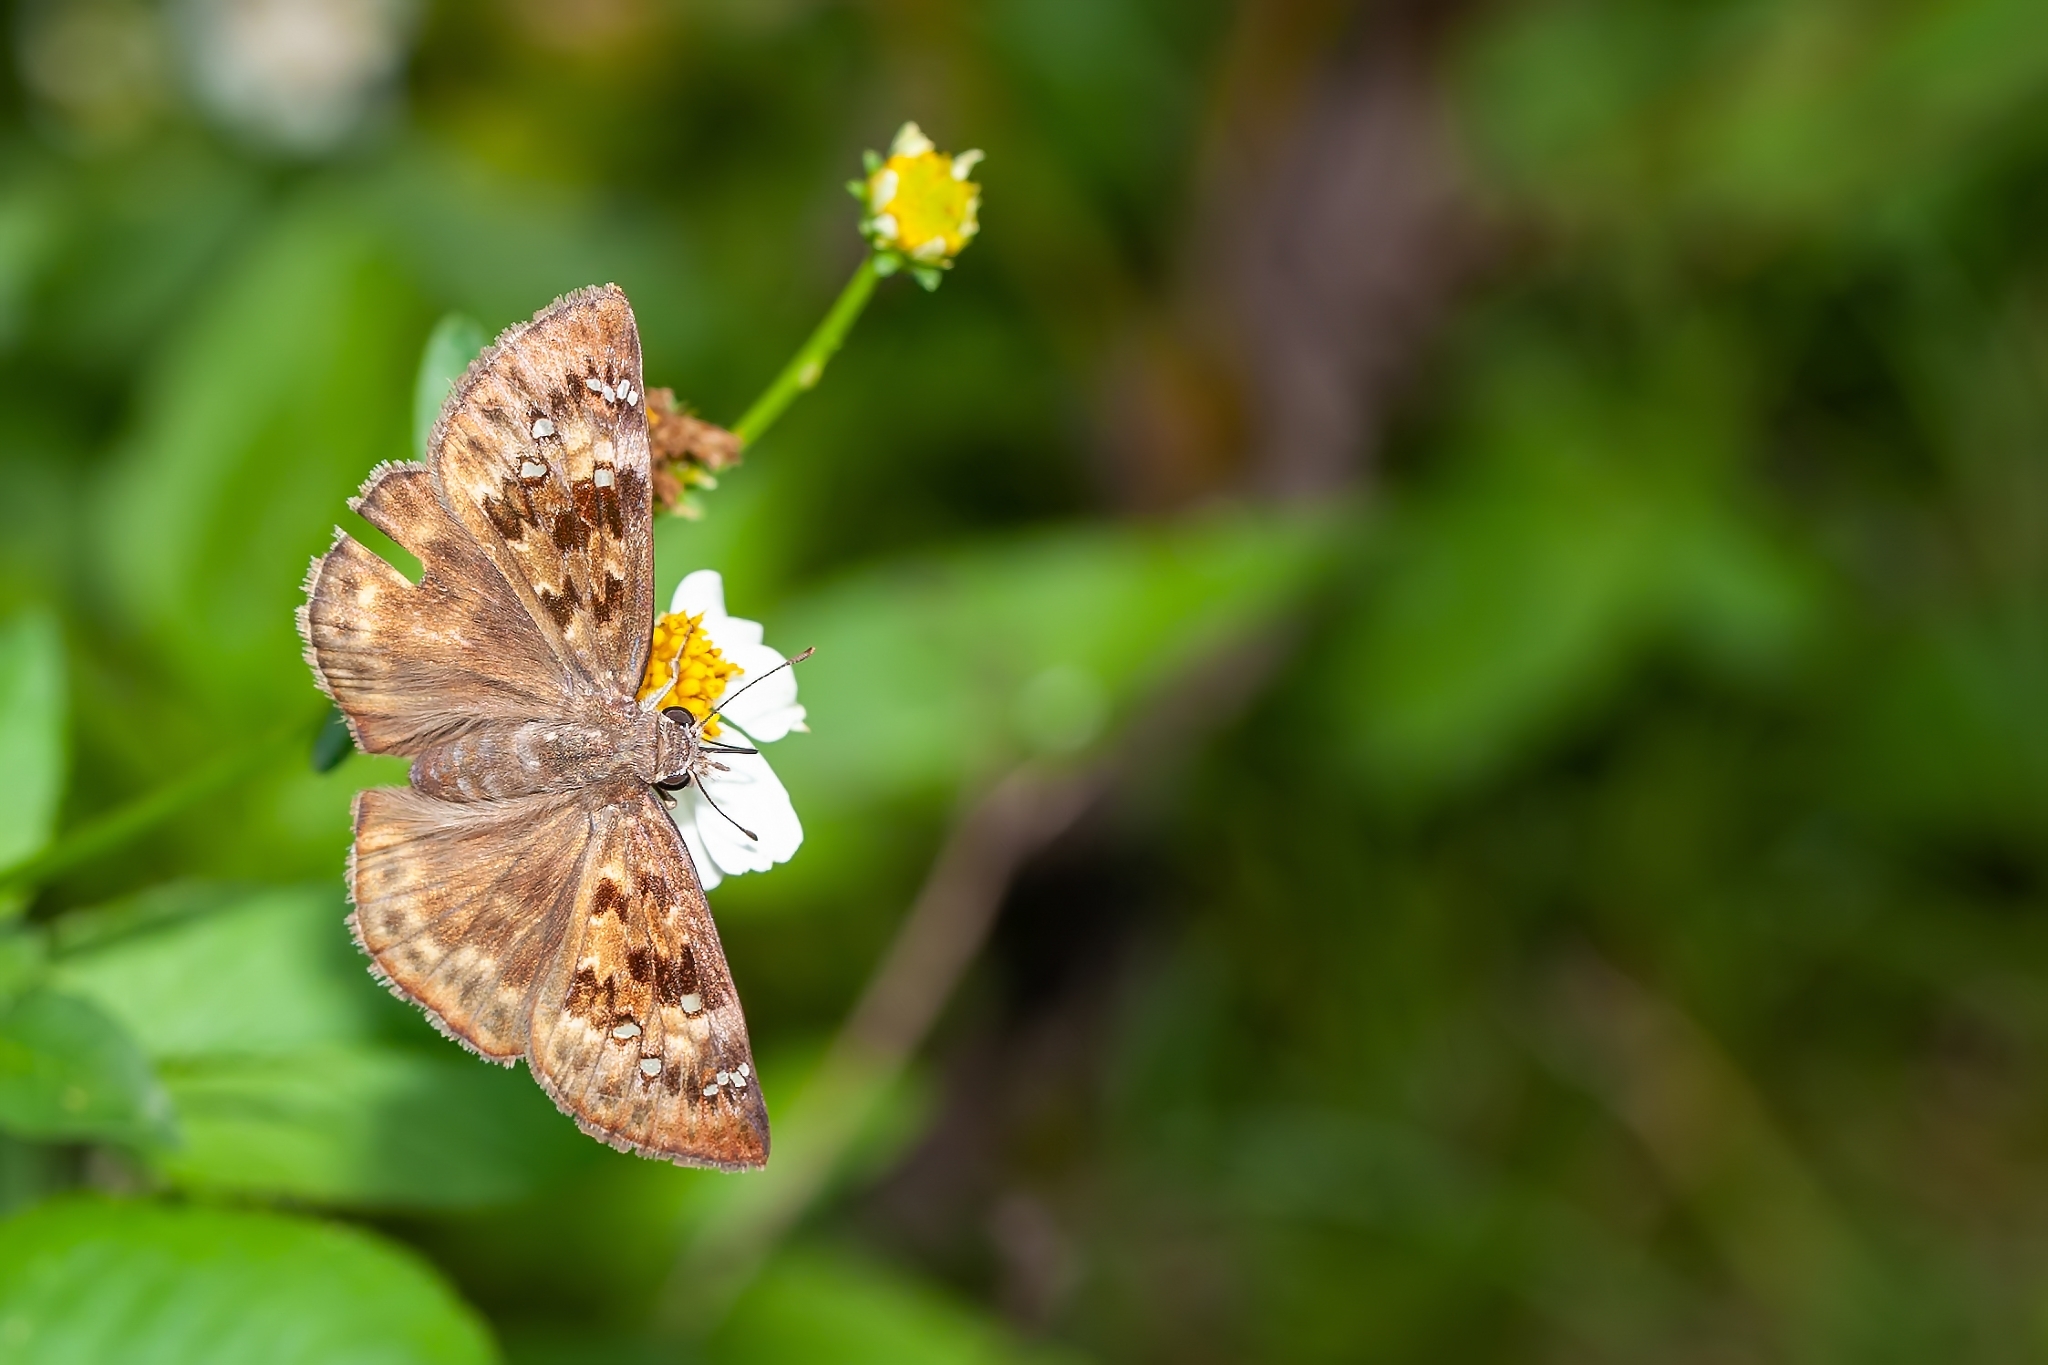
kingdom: Animalia
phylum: Arthropoda
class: Insecta
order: Lepidoptera
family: Hesperiidae
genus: Erynnis
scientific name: Erynnis horatius
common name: Horace's duskywing
